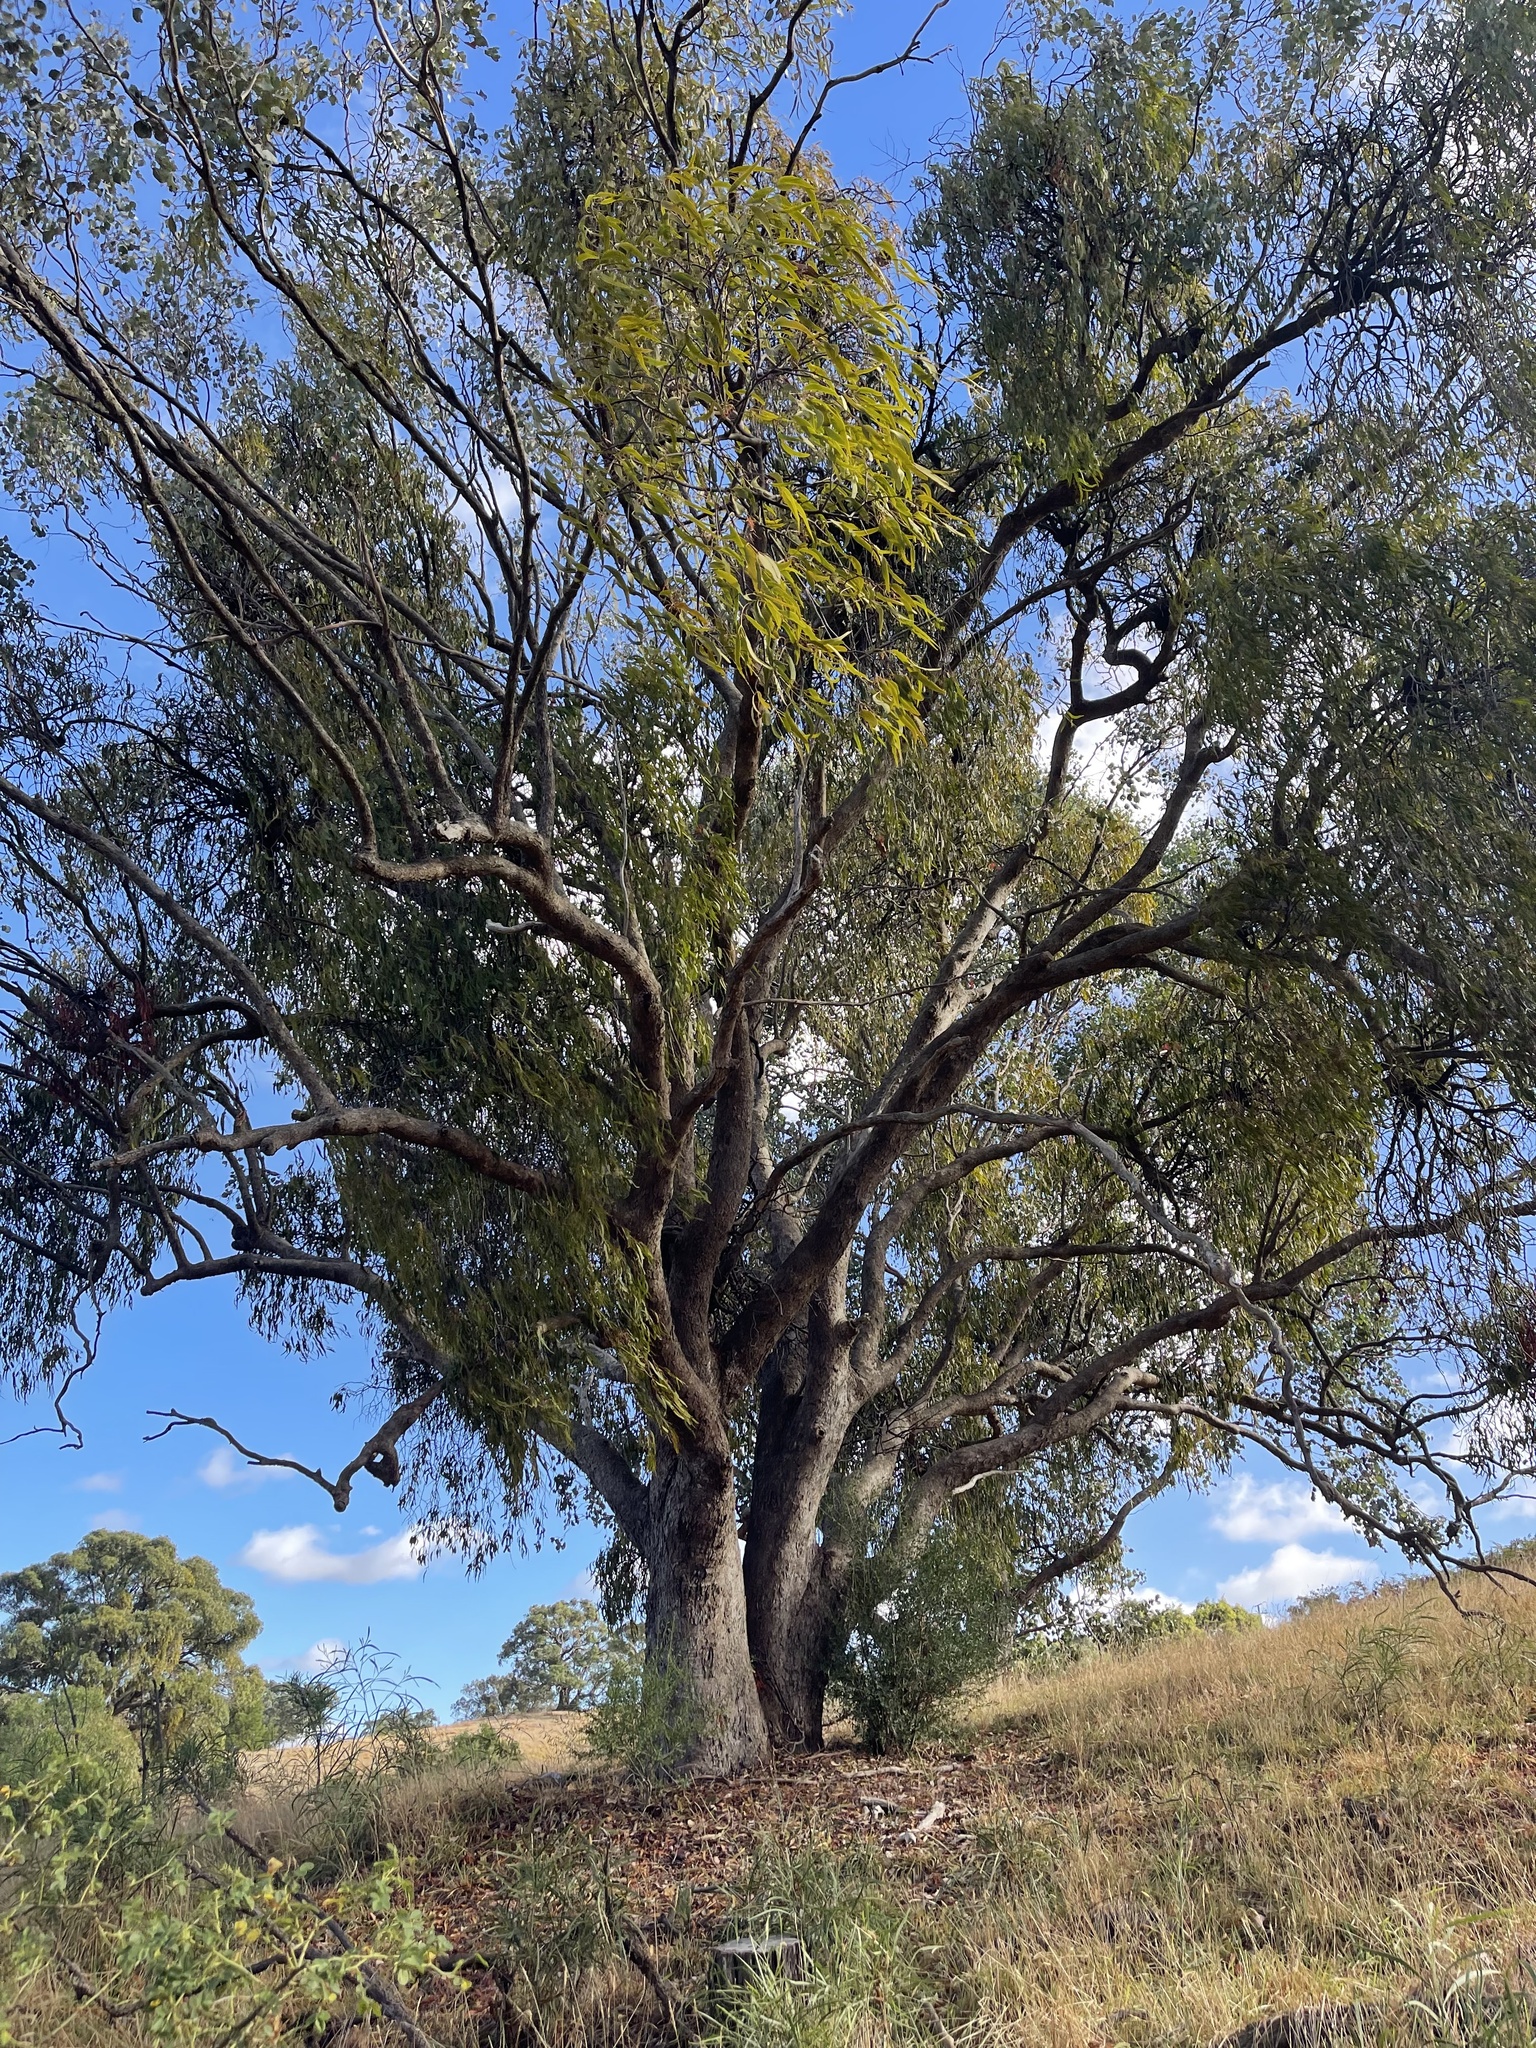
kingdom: Plantae
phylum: Tracheophyta
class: Magnoliopsida
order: Myrtales
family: Myrtaceae
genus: Eucalyptus
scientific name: Eucalyptus polyanthemos
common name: Red-box
